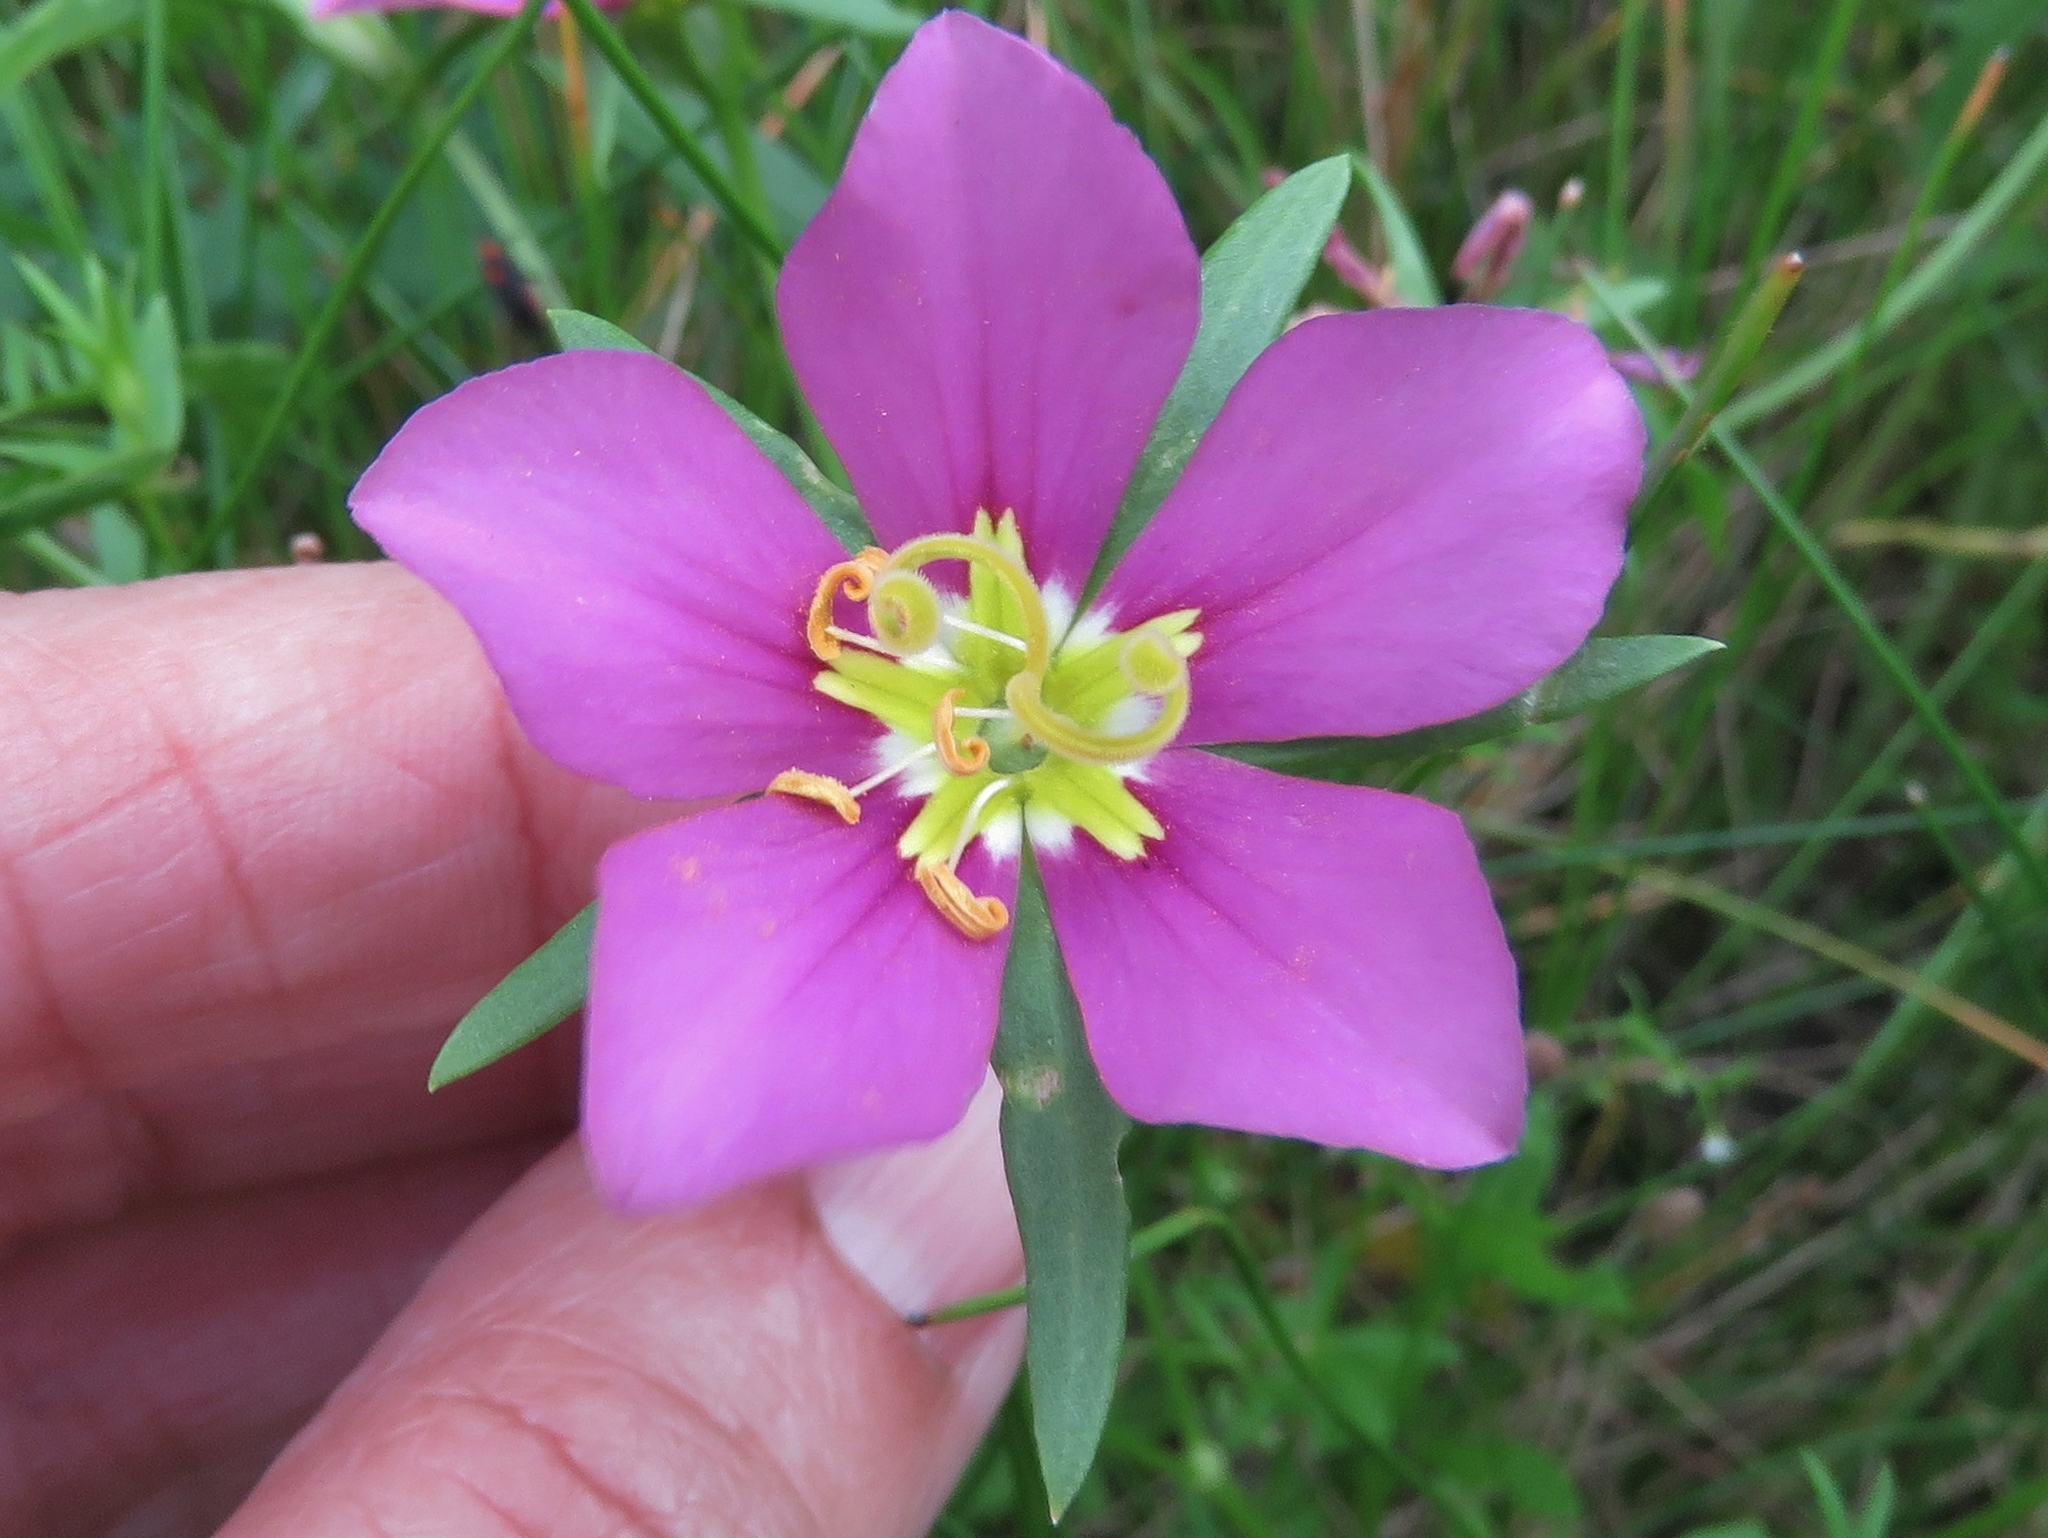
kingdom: Plantae
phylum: Tracheophyta
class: Magnoliopsida
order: Gentianales
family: Gentianaceae
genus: Sabatia
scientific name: Sabatia campestris
